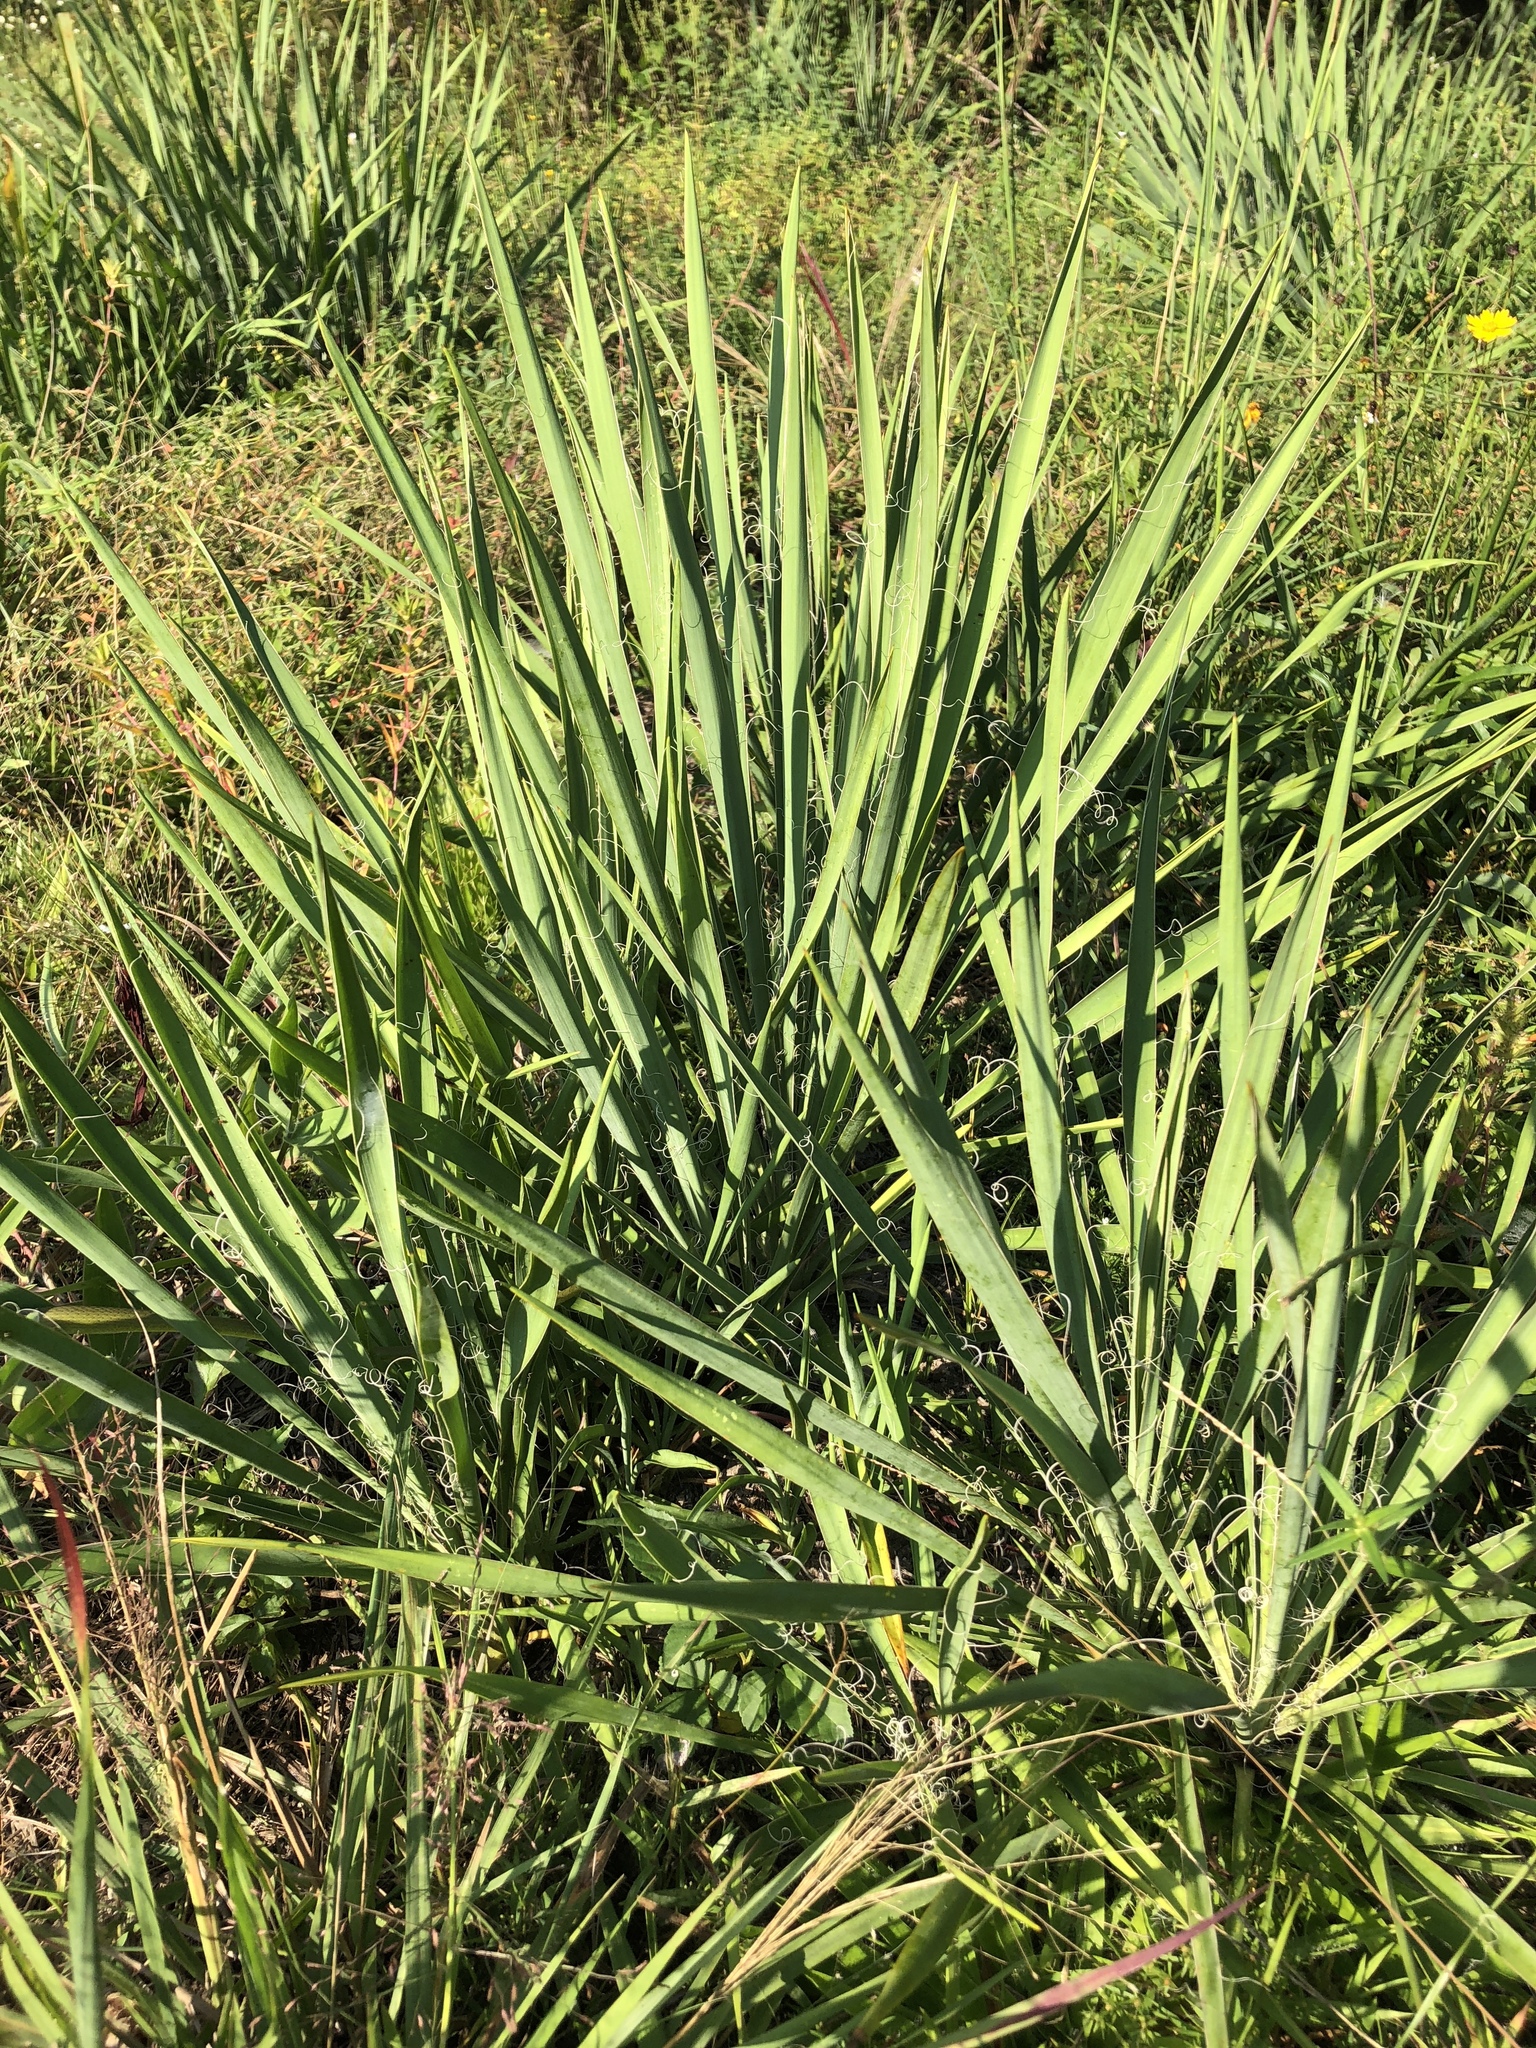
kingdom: Plantae
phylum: Tracheophyta
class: Liliopsida
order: Asparagales
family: Asparagaceae
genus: Yucca
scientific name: Yucca filamentosa
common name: Adam's-needle
